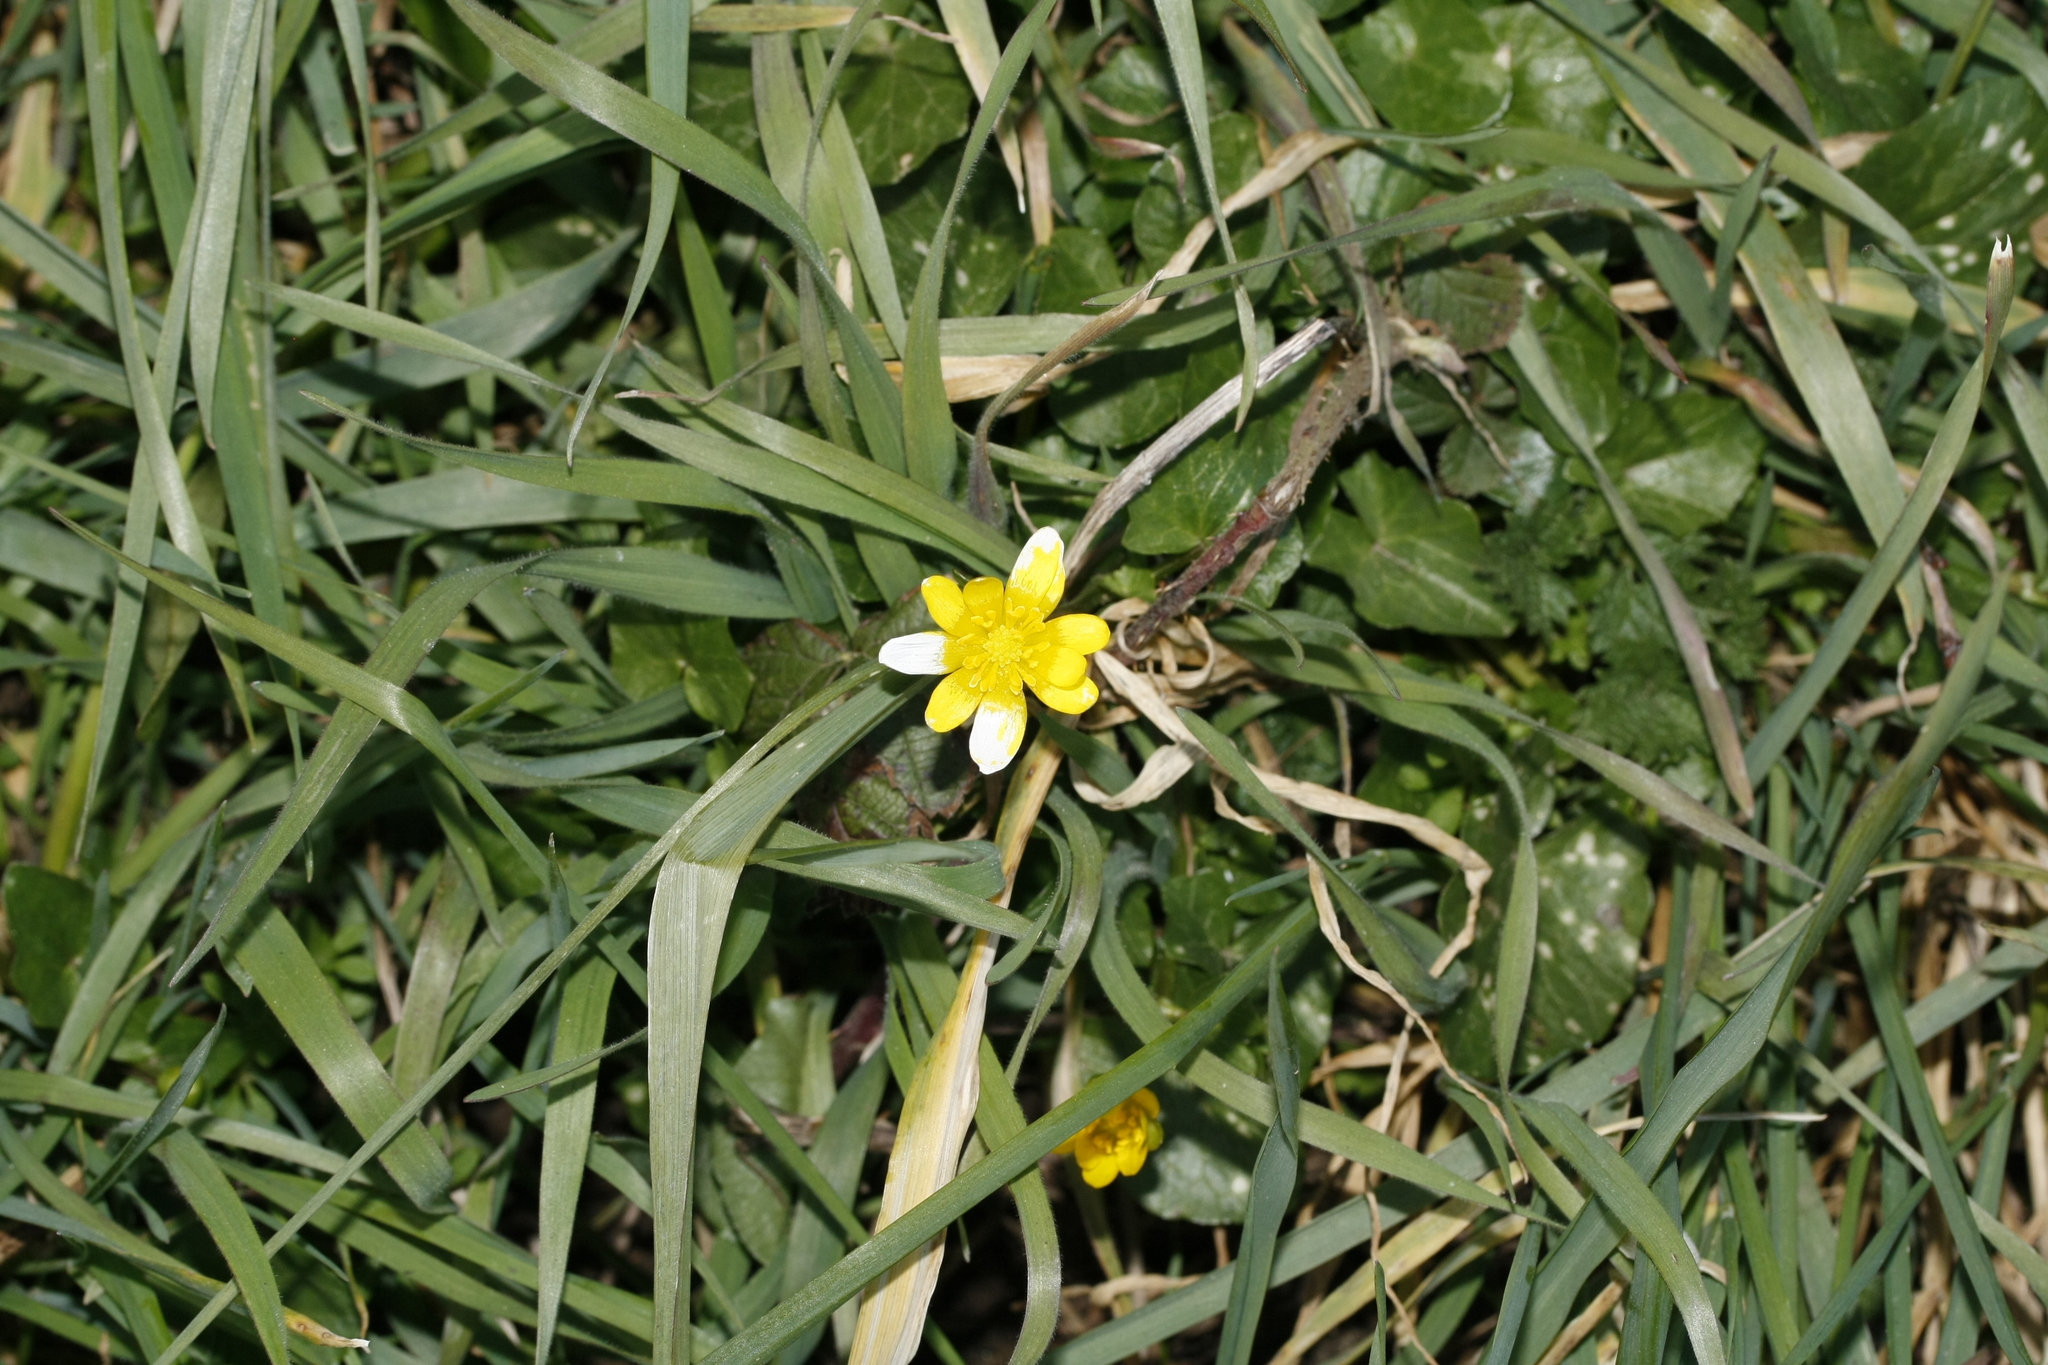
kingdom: Plantae
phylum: Tracheophyta
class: Magnoliopsida
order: Ranunculales
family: Ranunculaceae
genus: Ficaria
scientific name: Ficaria verna
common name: Lesser celandine
